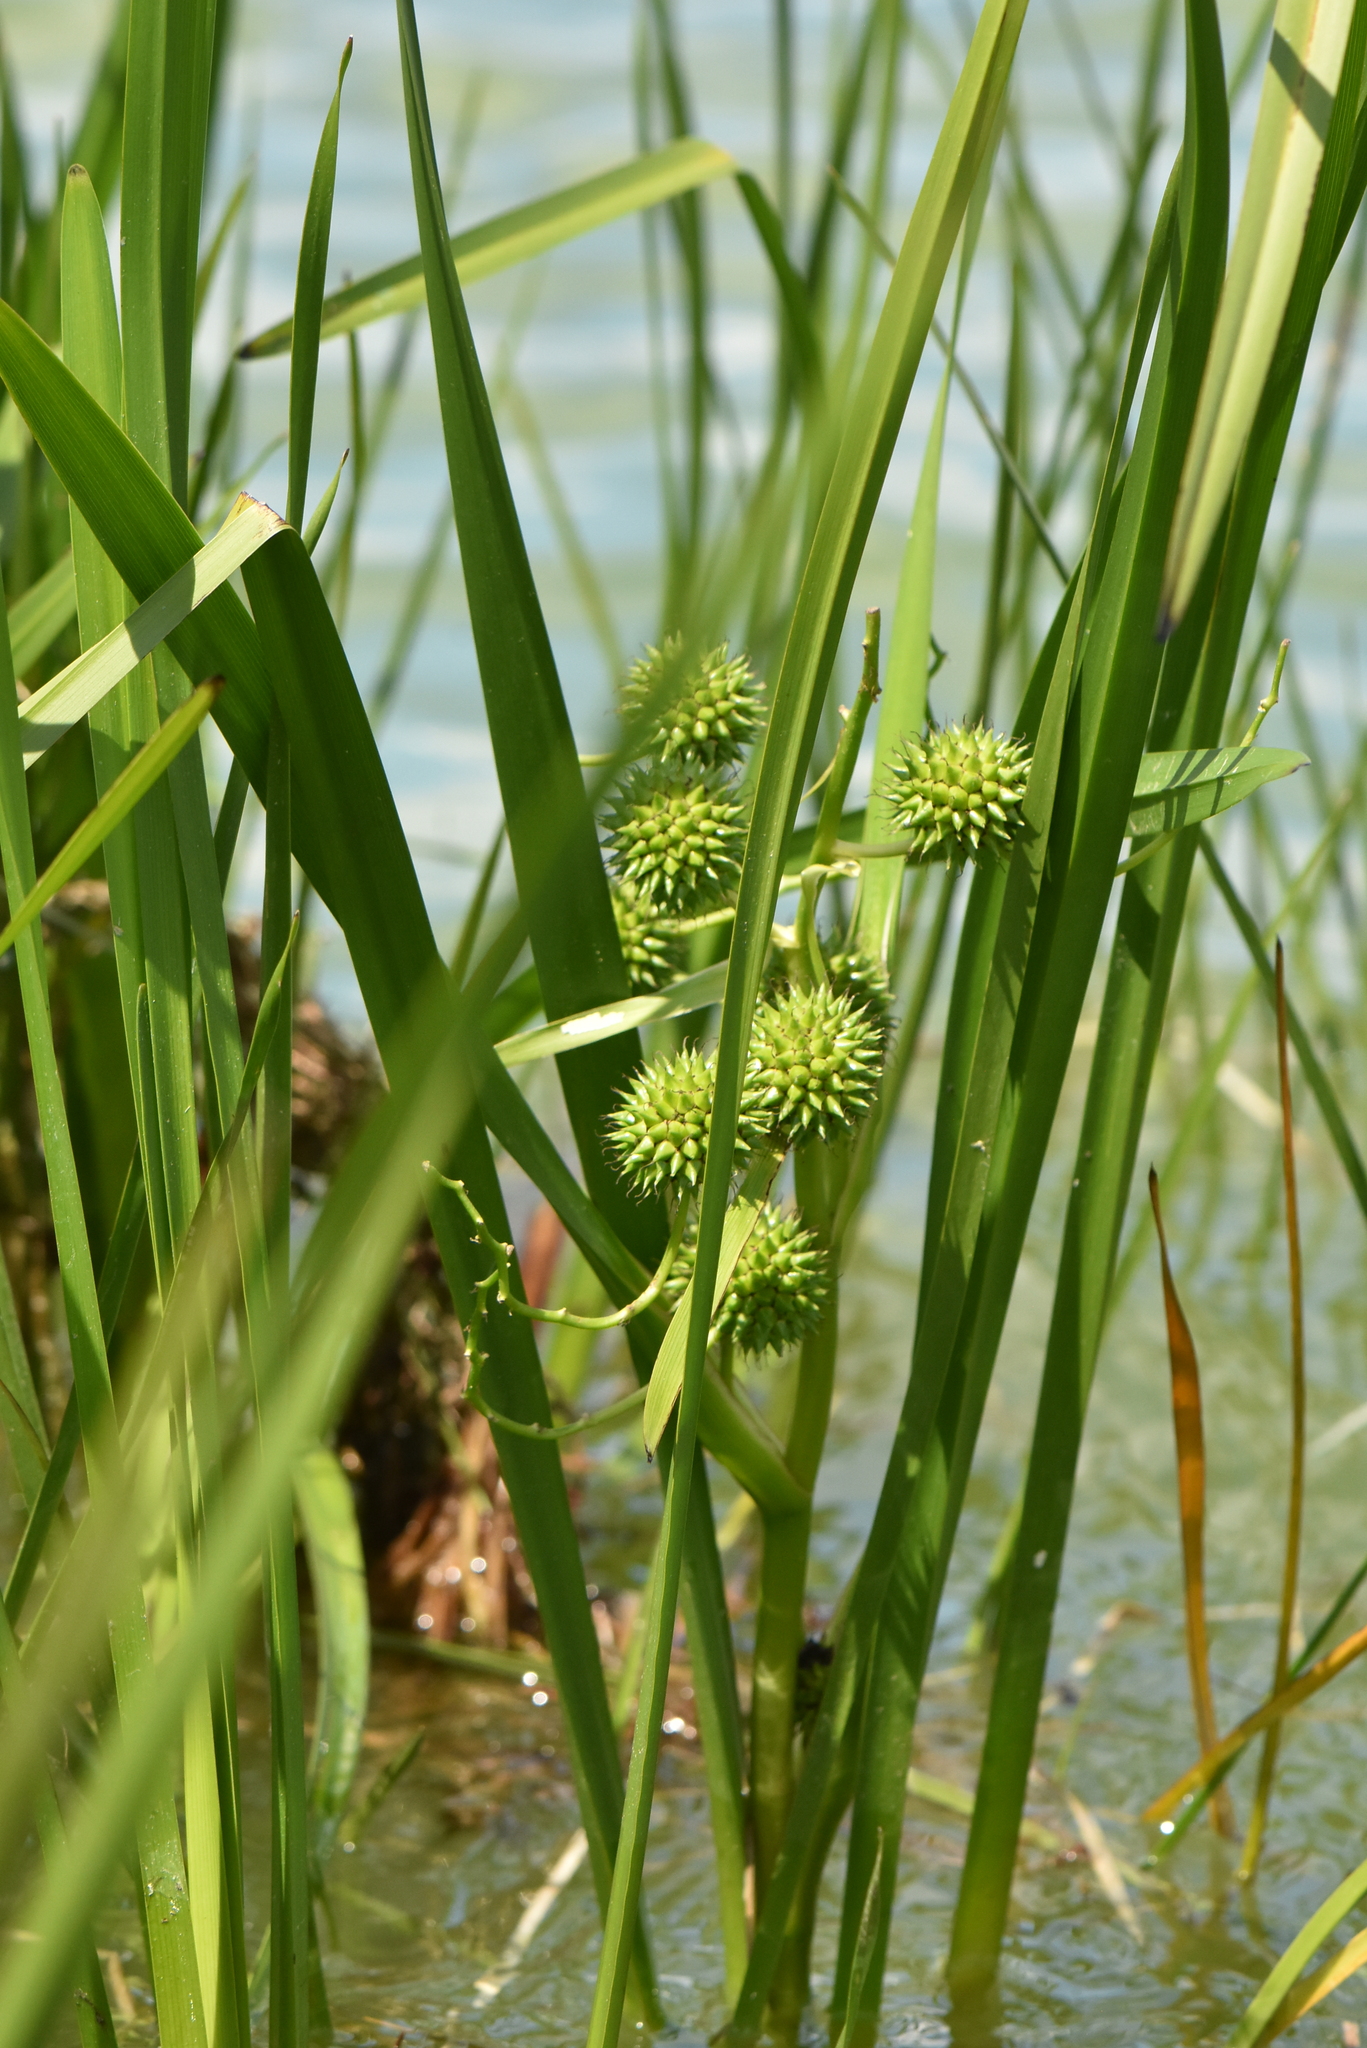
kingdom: Plantae
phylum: Tracheophyta
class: Liliopsida
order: Poales
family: Typhaceae
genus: Sparganium
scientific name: Sparganium erectum
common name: Branched bur-reed
